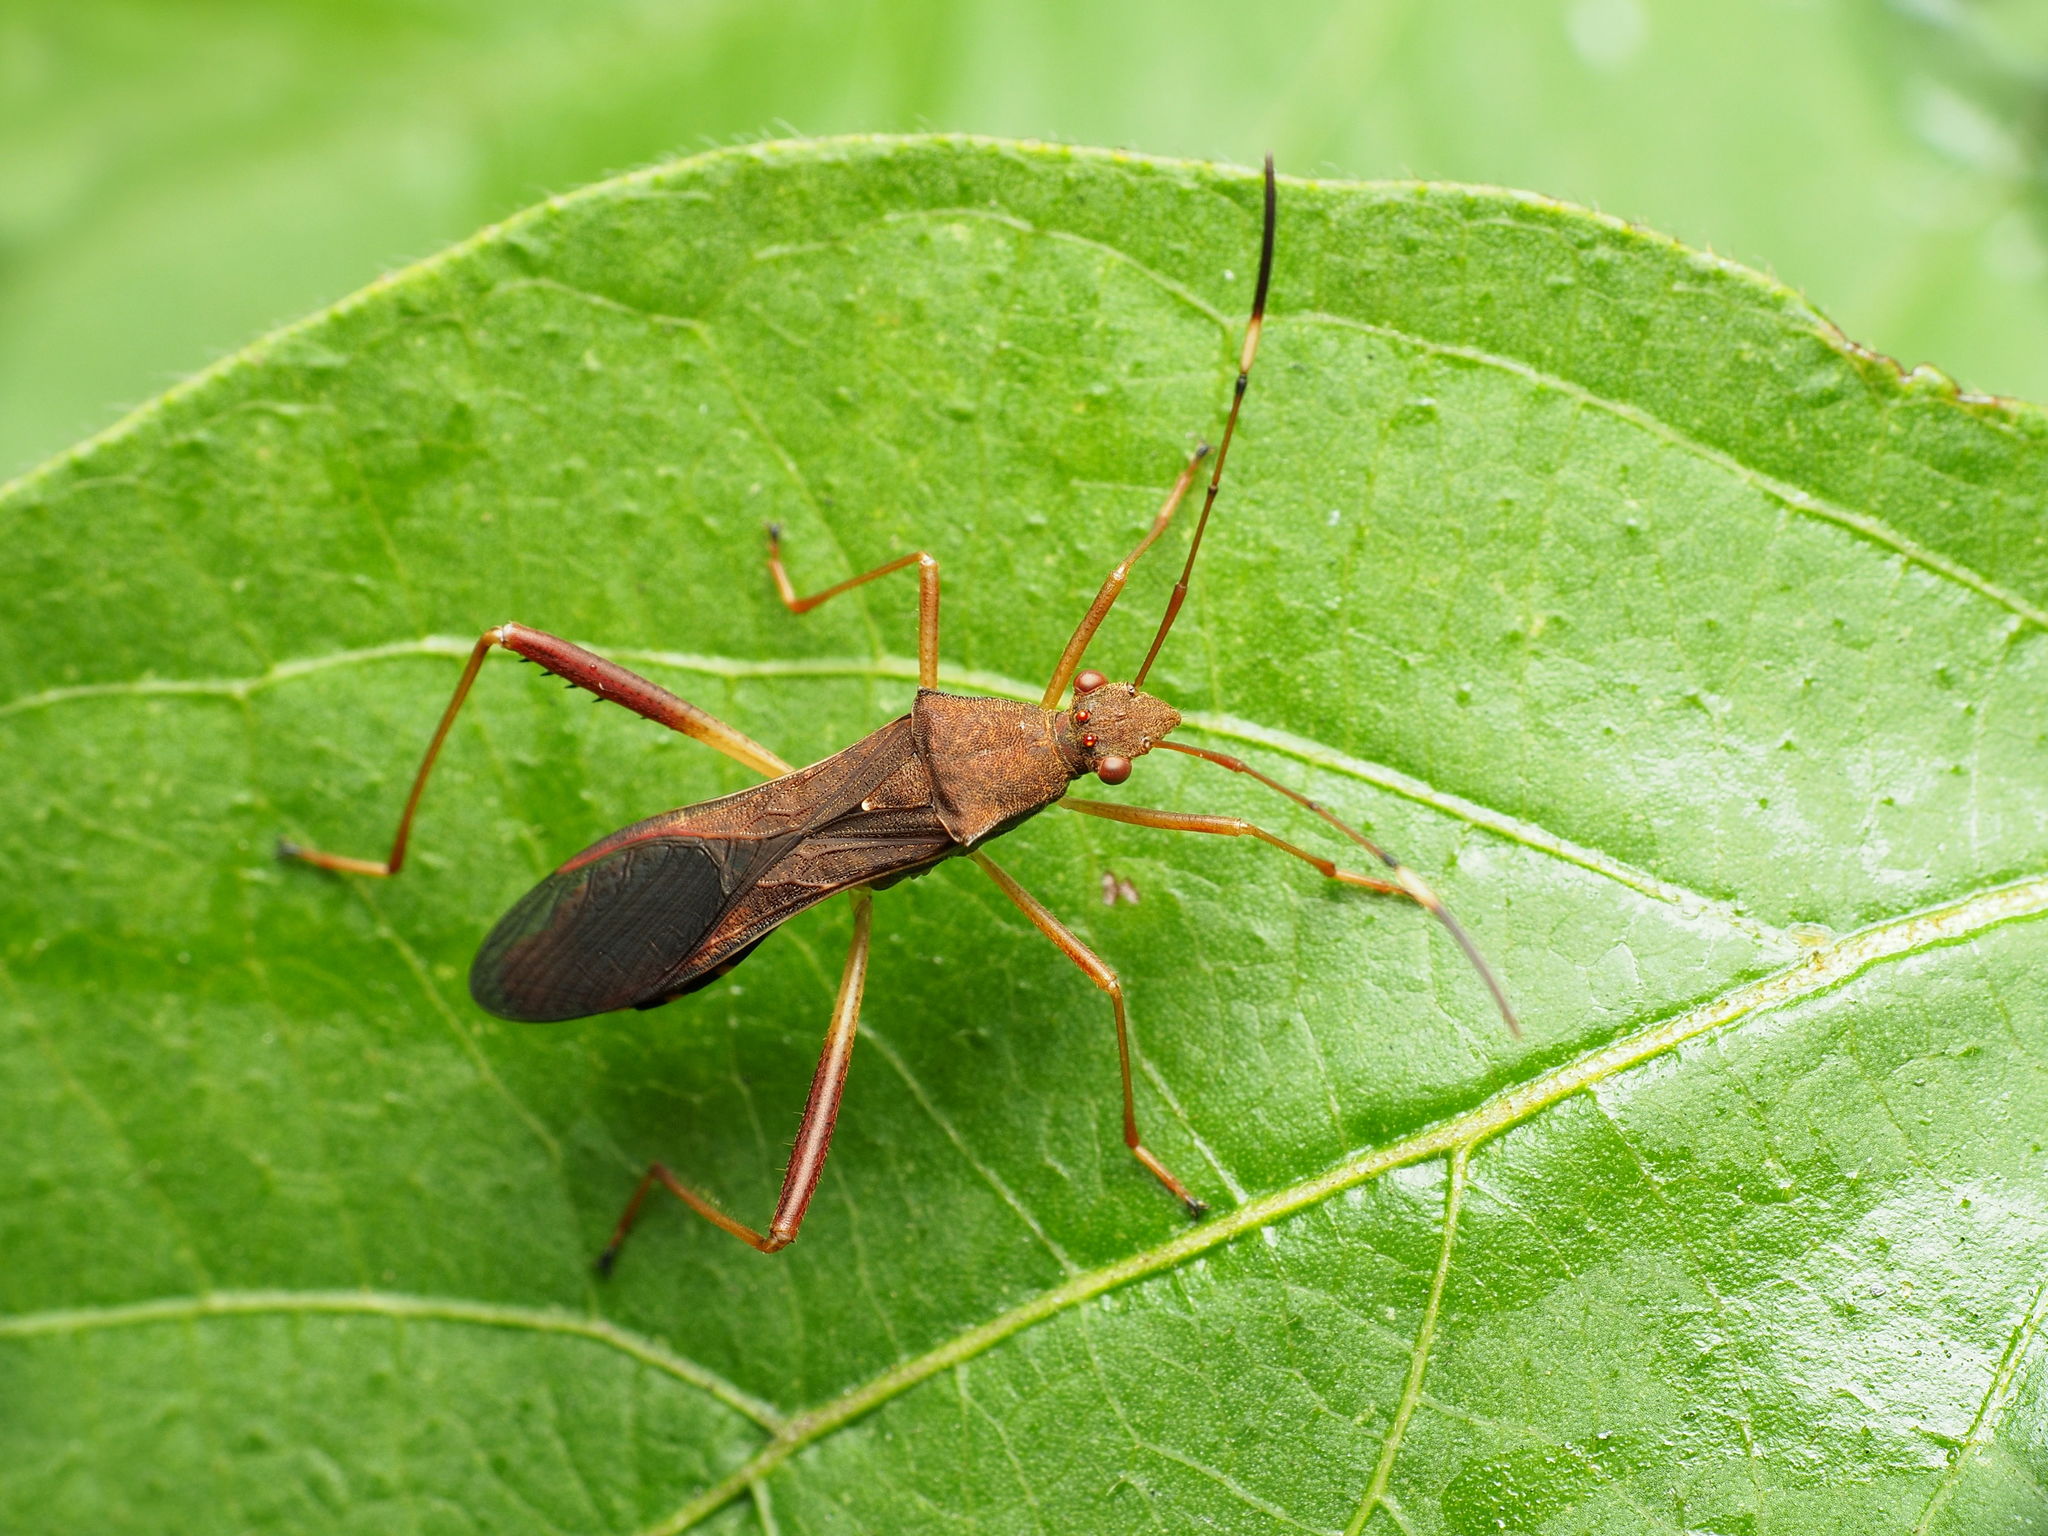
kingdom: Animalia
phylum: Arthropoda
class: Insecta
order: Hemiptera
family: Alydidae
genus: Megalotomus
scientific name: Megalotomus quinquespinosus
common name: Lupine bug
